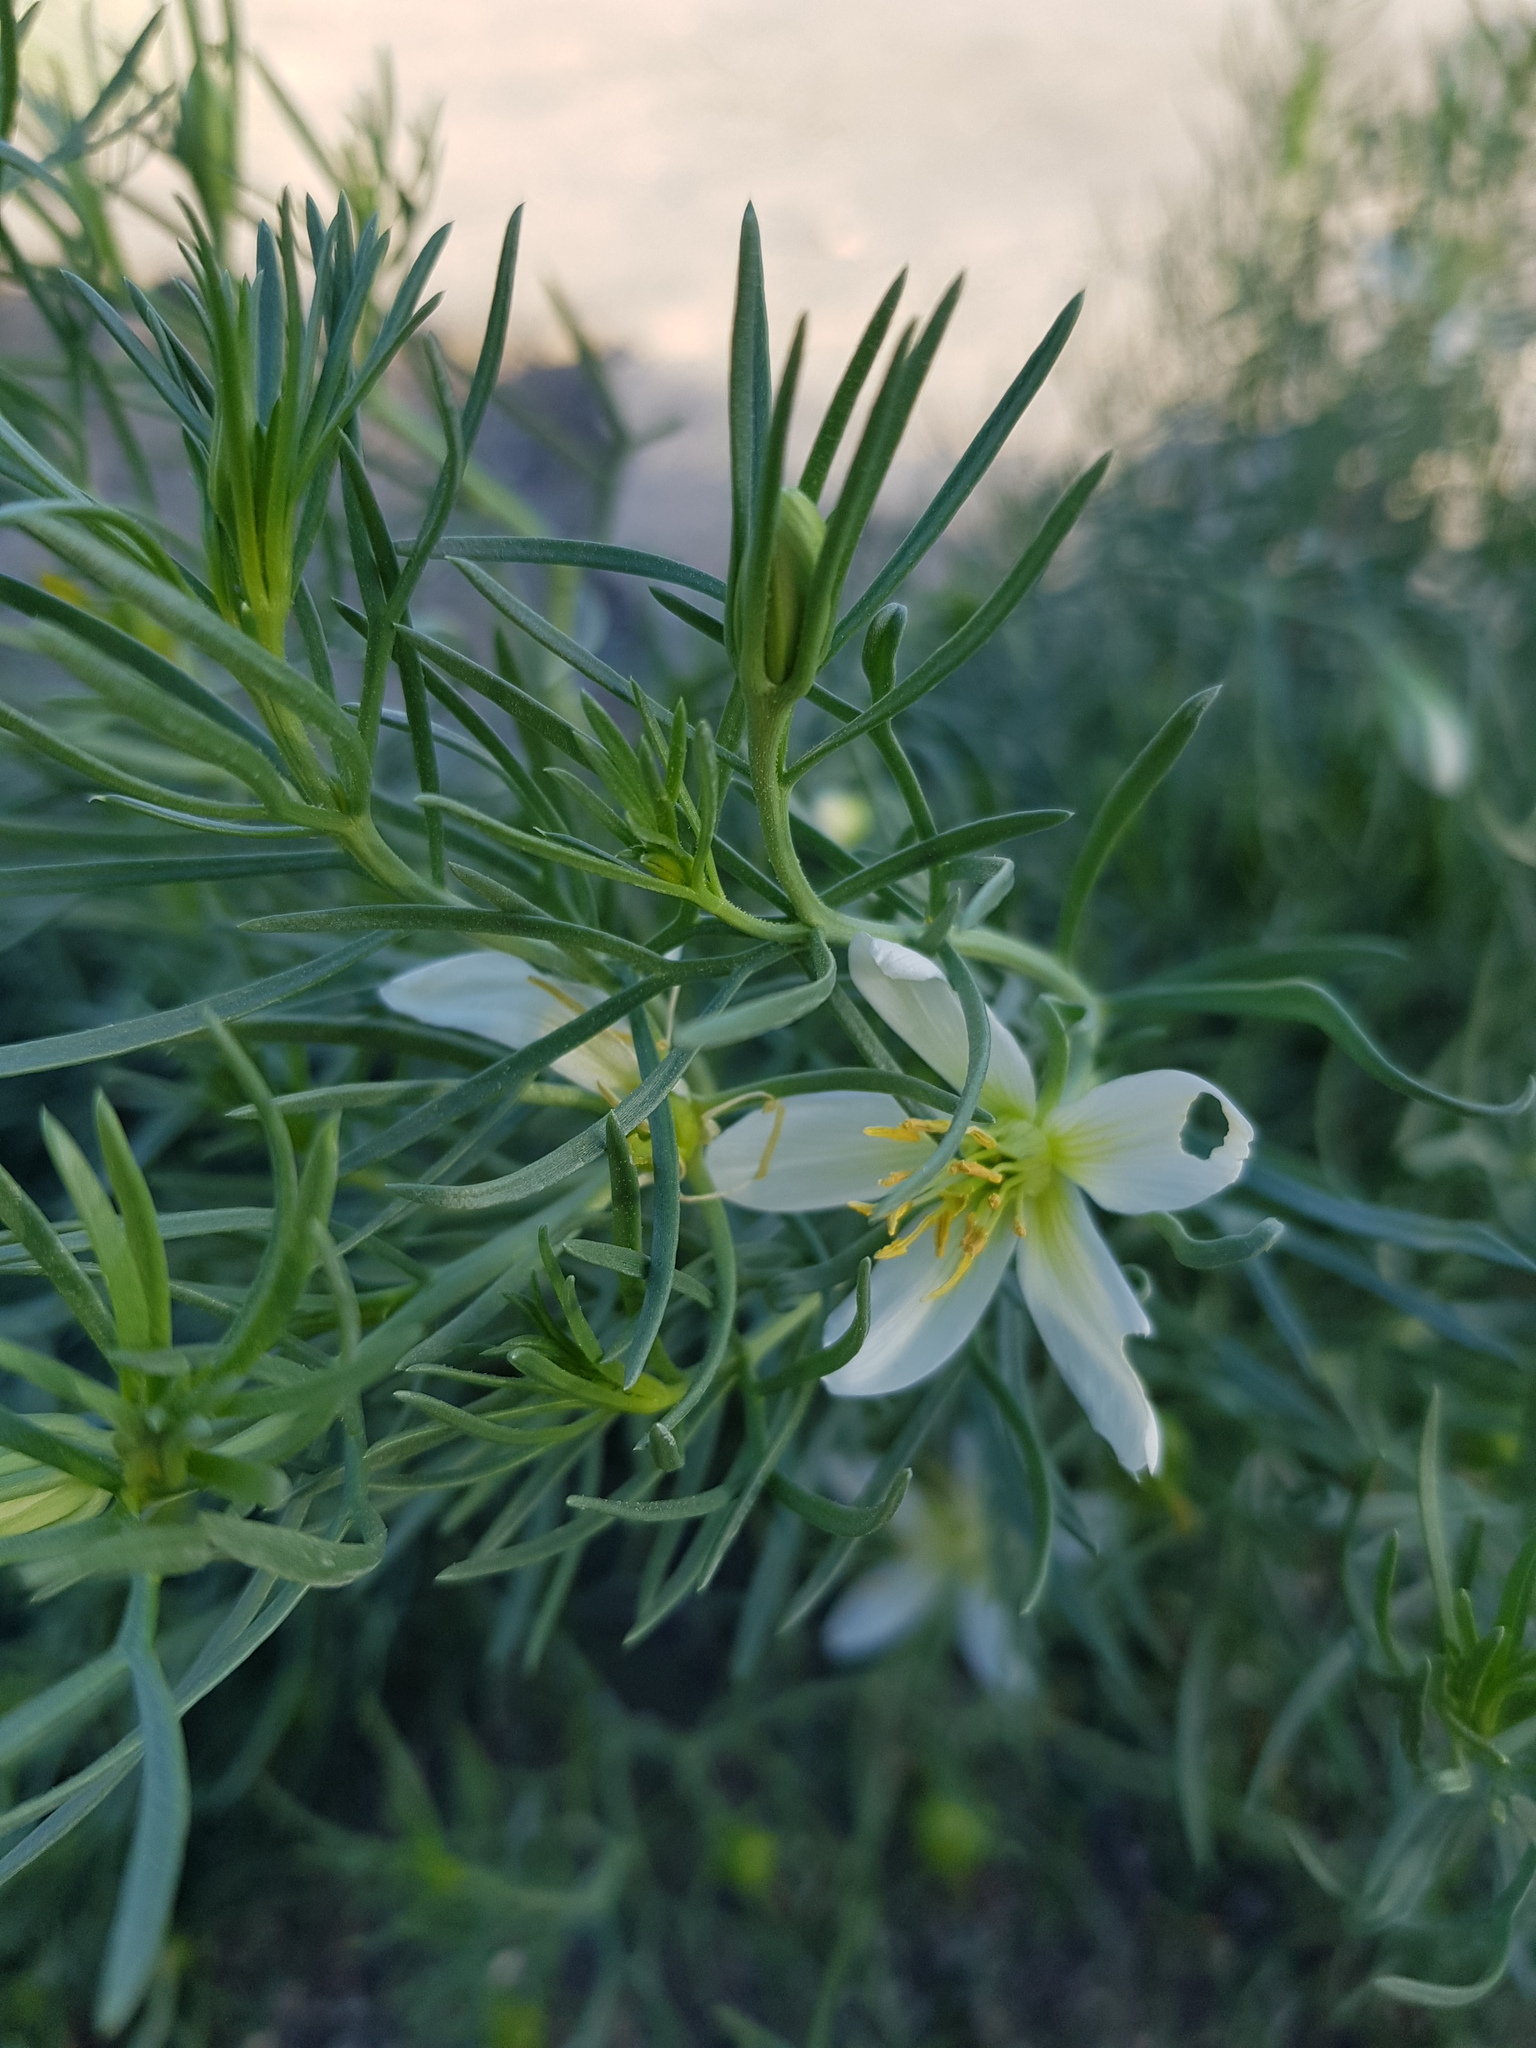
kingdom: Plantae
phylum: Tracheophyta
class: Magnoliopsida
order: Sapindales
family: Tetradiclidaceae
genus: Peganum
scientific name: Peganum harmala
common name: Harmal peganum
